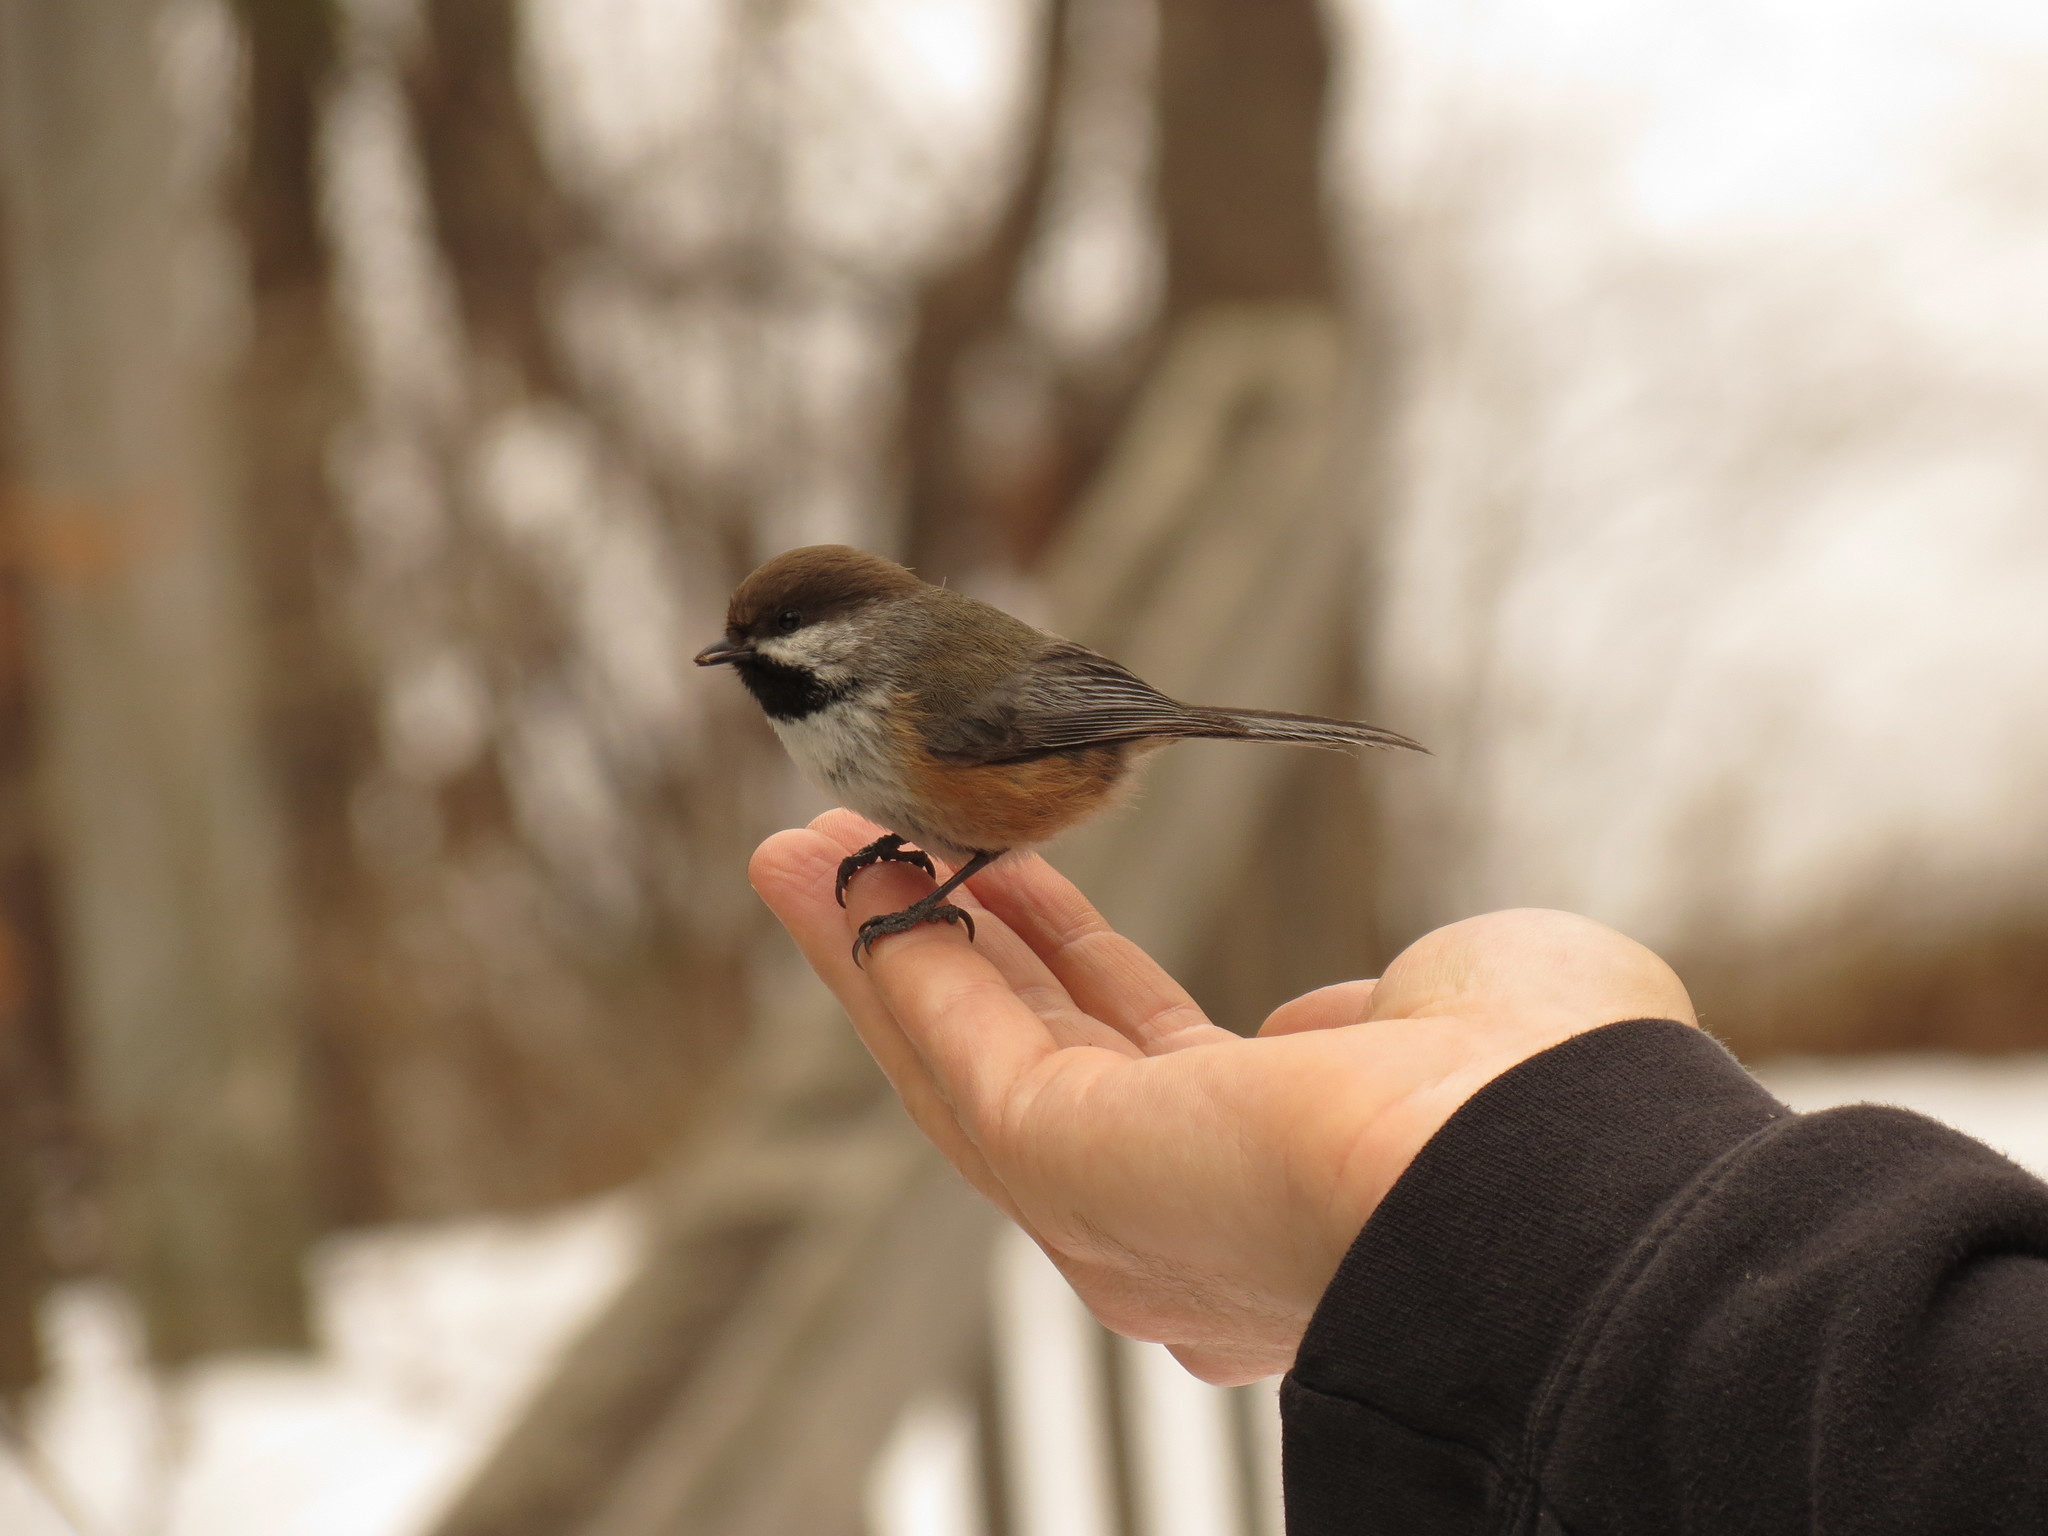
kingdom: Animalia
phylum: Chordata
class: Aves
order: Passeriformes
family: Paridae
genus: Poecile
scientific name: Poecile hudsonicus
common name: Boreal chickadee
